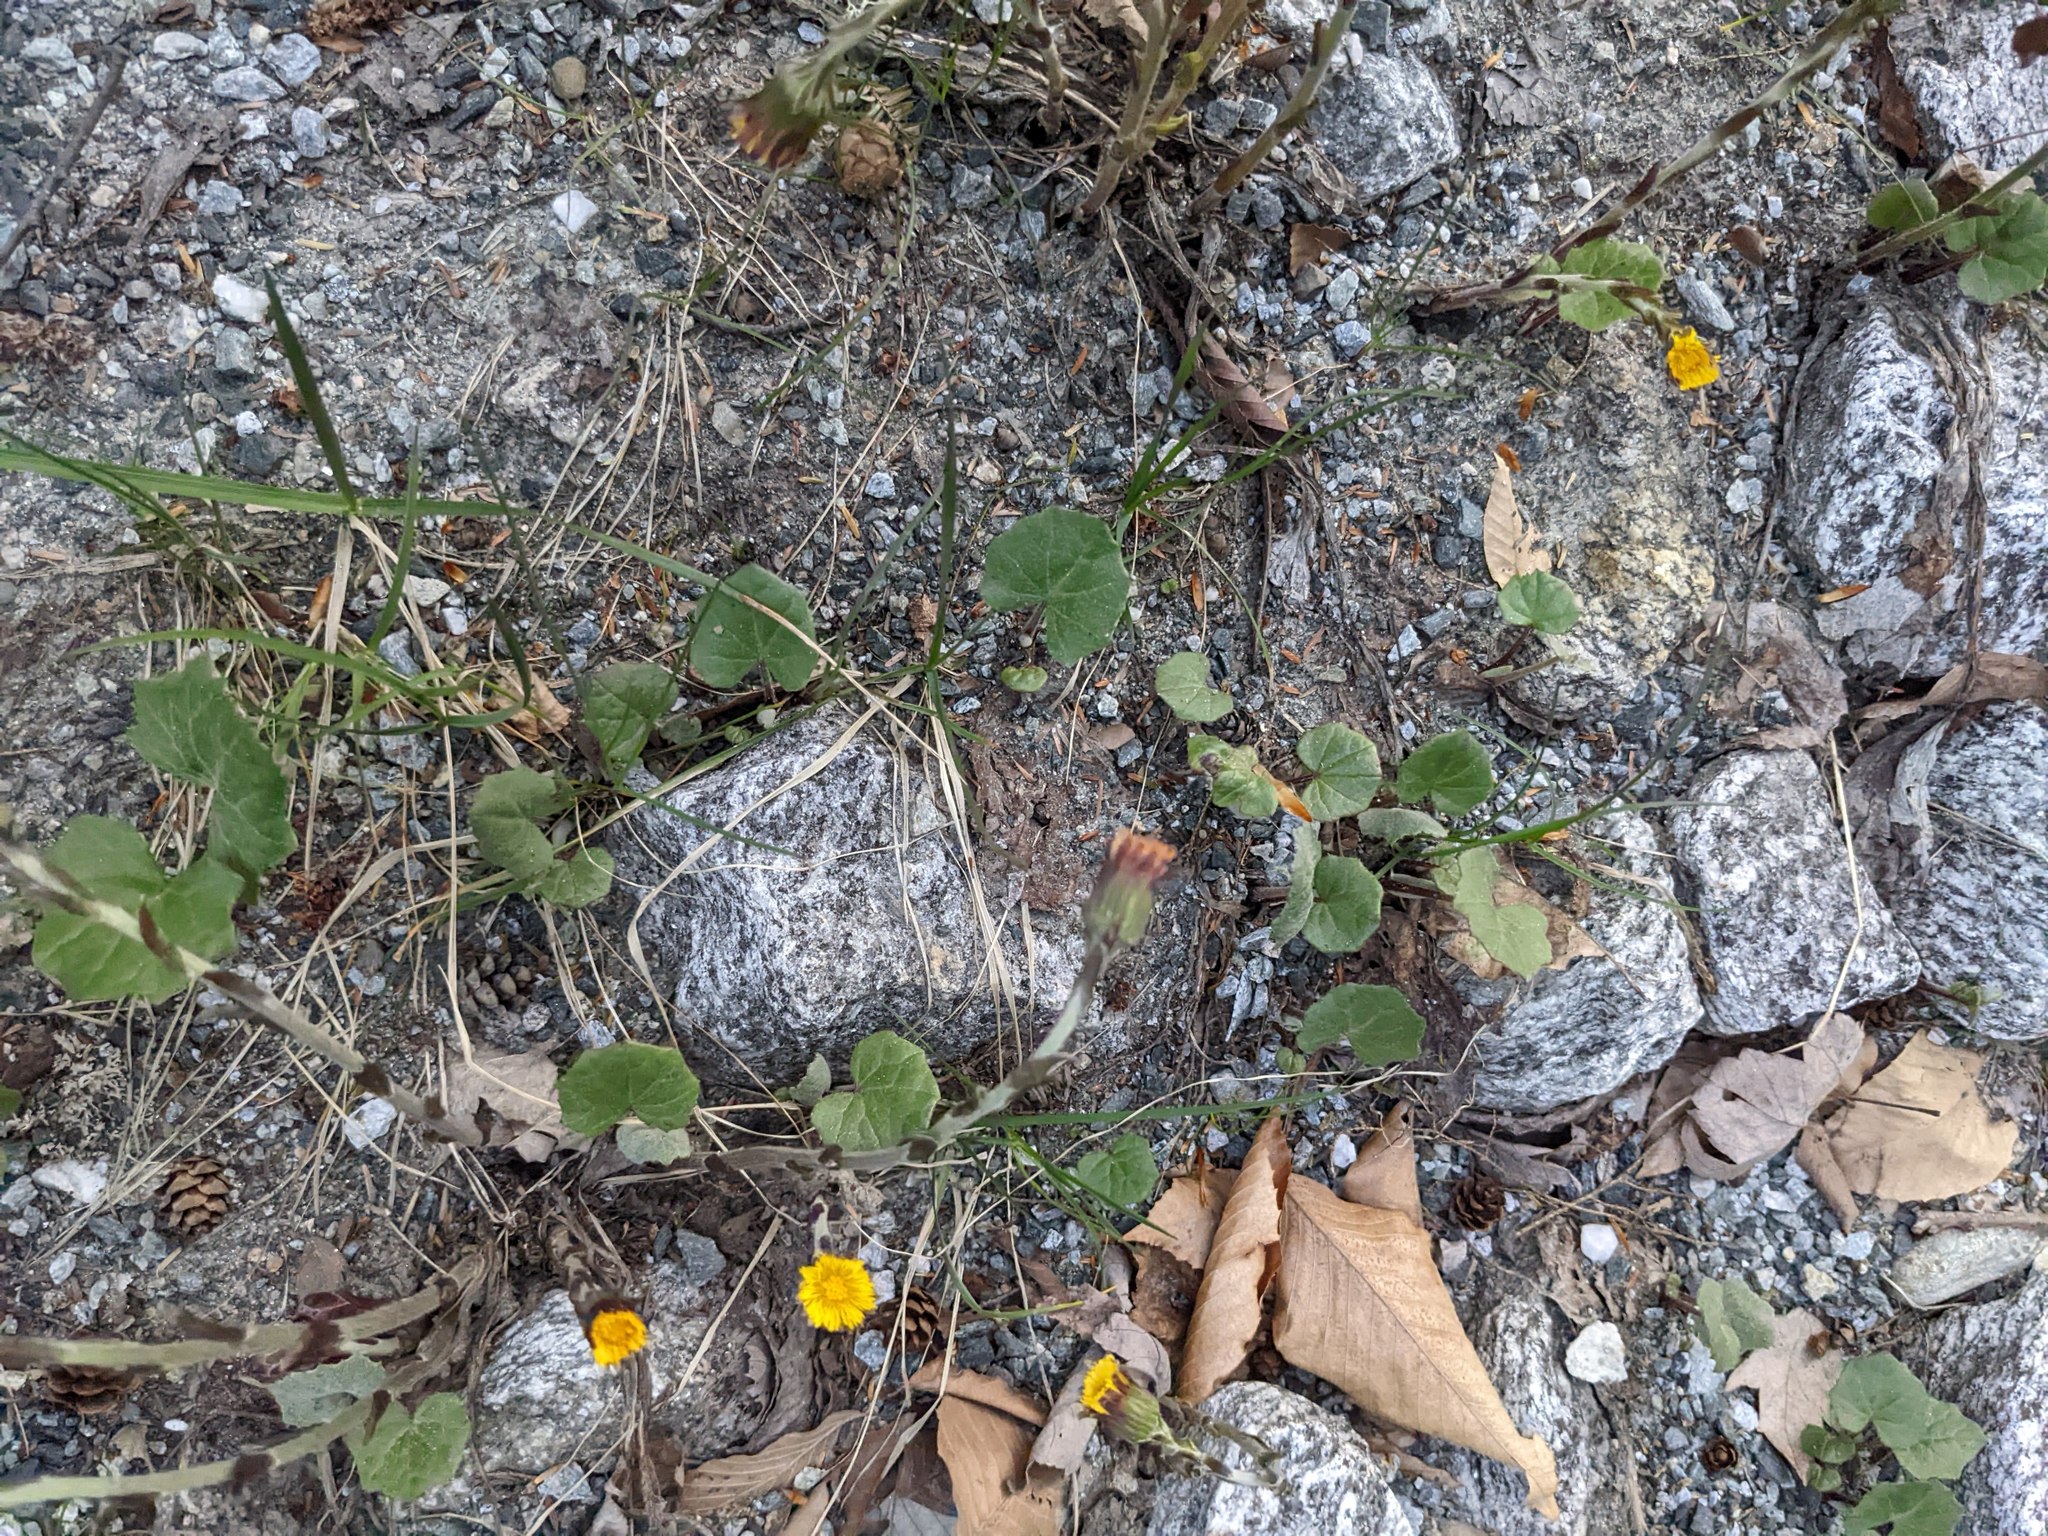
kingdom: Plantae
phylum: Tracheophyta
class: Magnoliopsida
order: Asterales
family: Asteraceae
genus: Tussilago
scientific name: Tussilago farfara
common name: Coltsfoot
